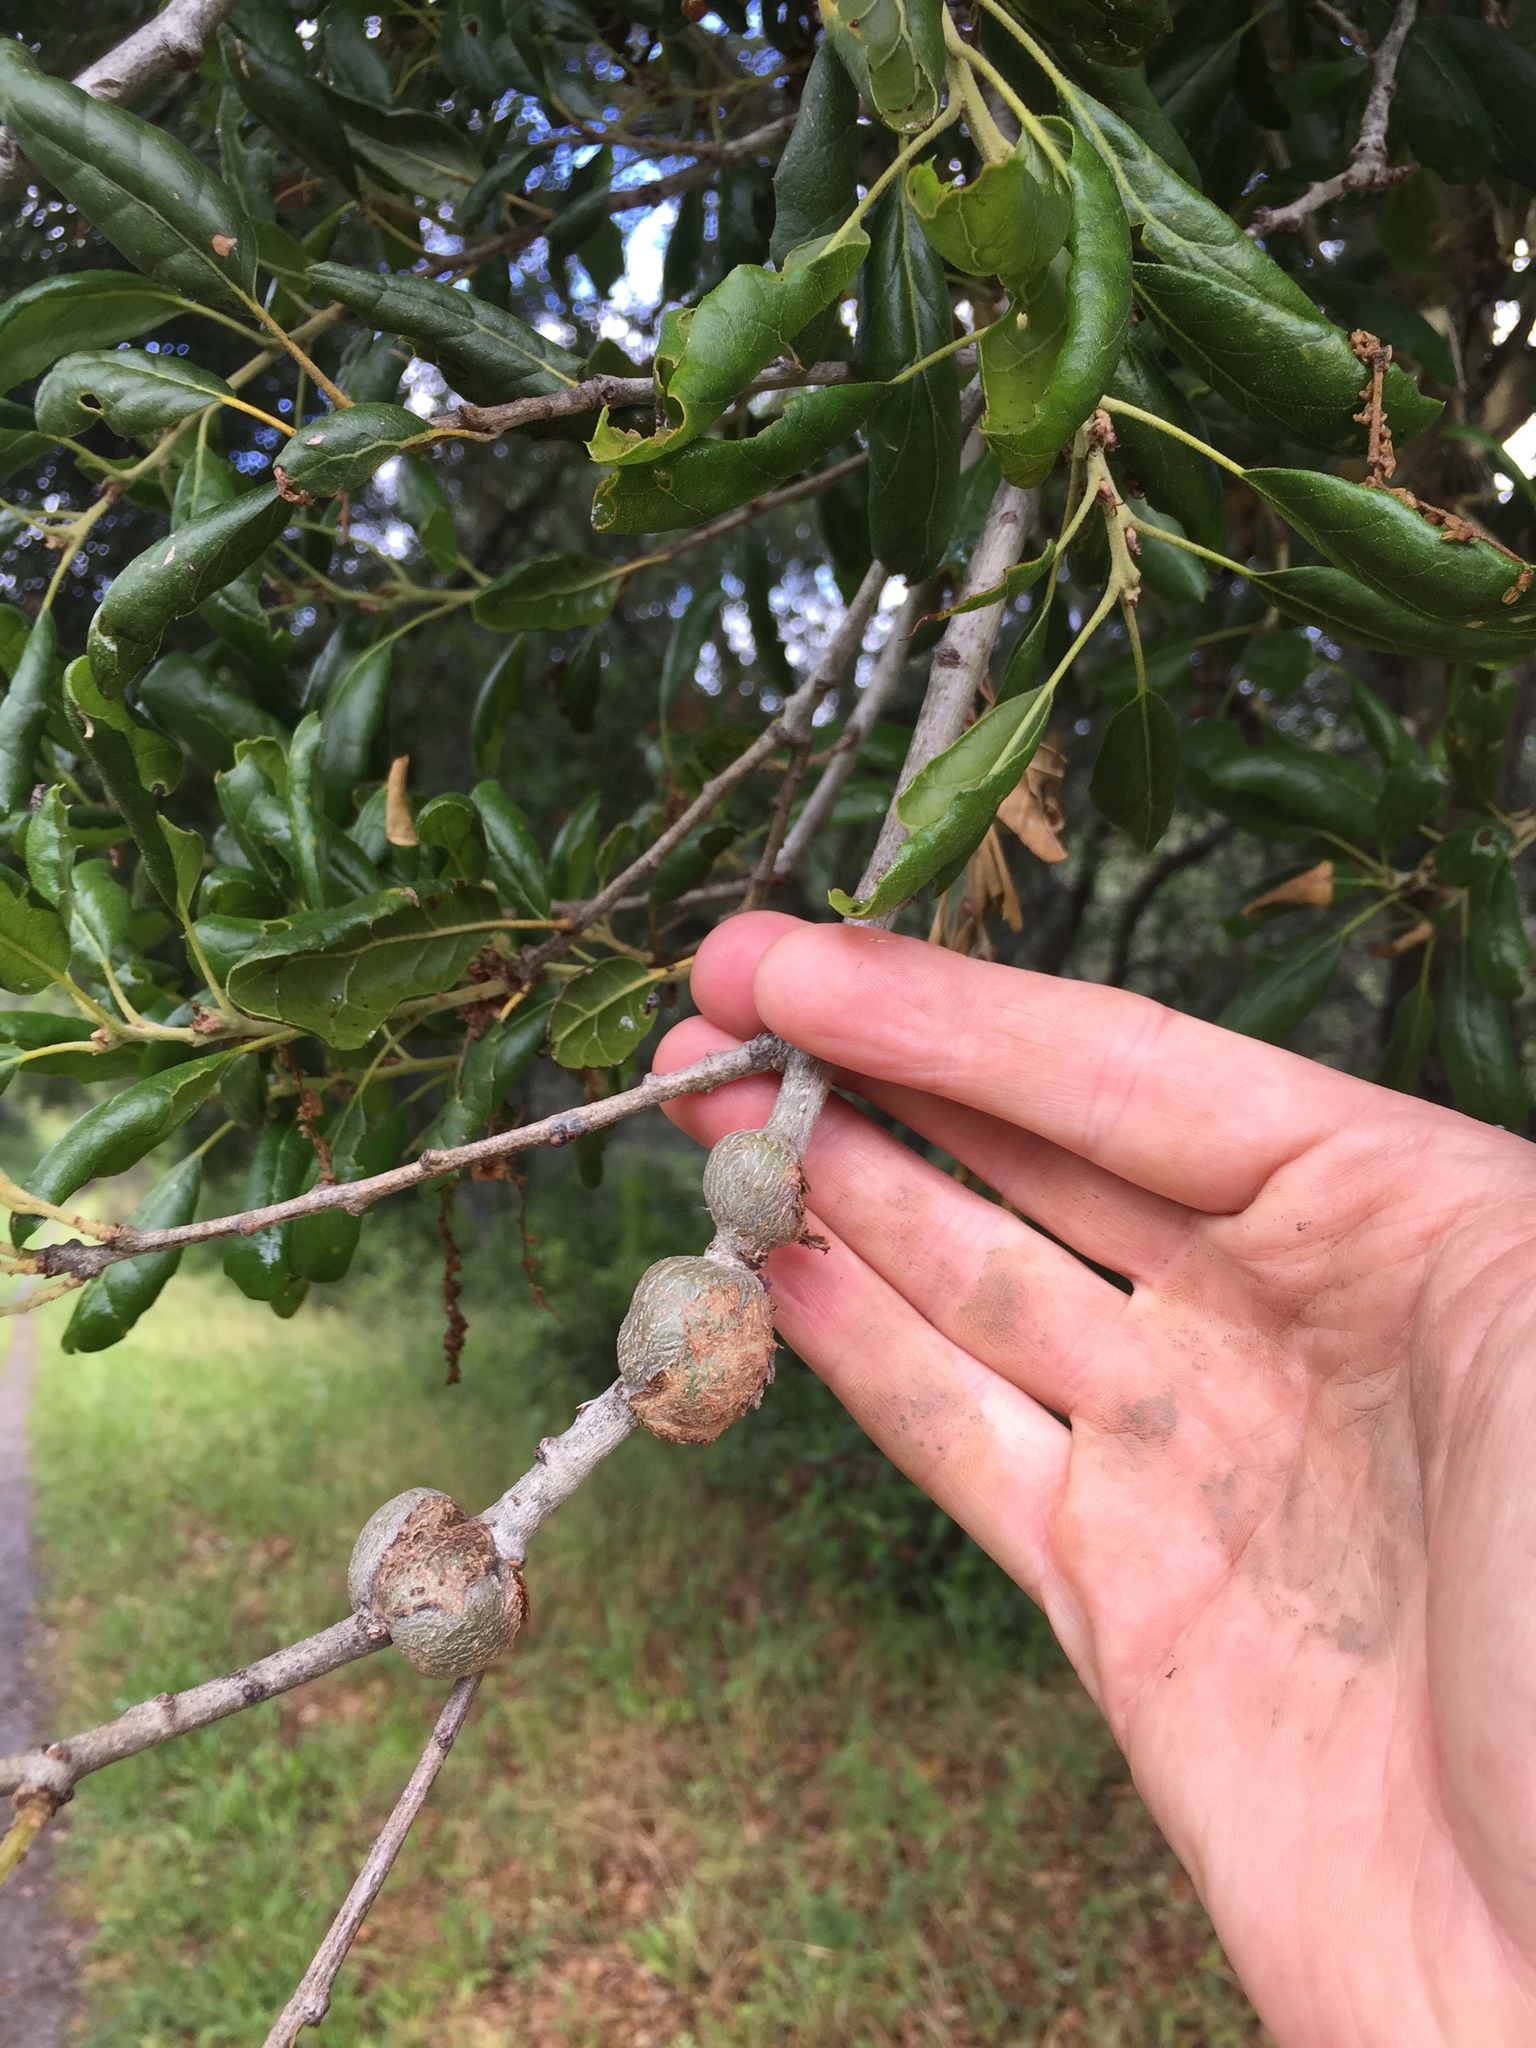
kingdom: Animalia
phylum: Arthropoda
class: Insecta
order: Hymenoptera
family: Cynipidae
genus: Callirhytis
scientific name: Callirhytis
